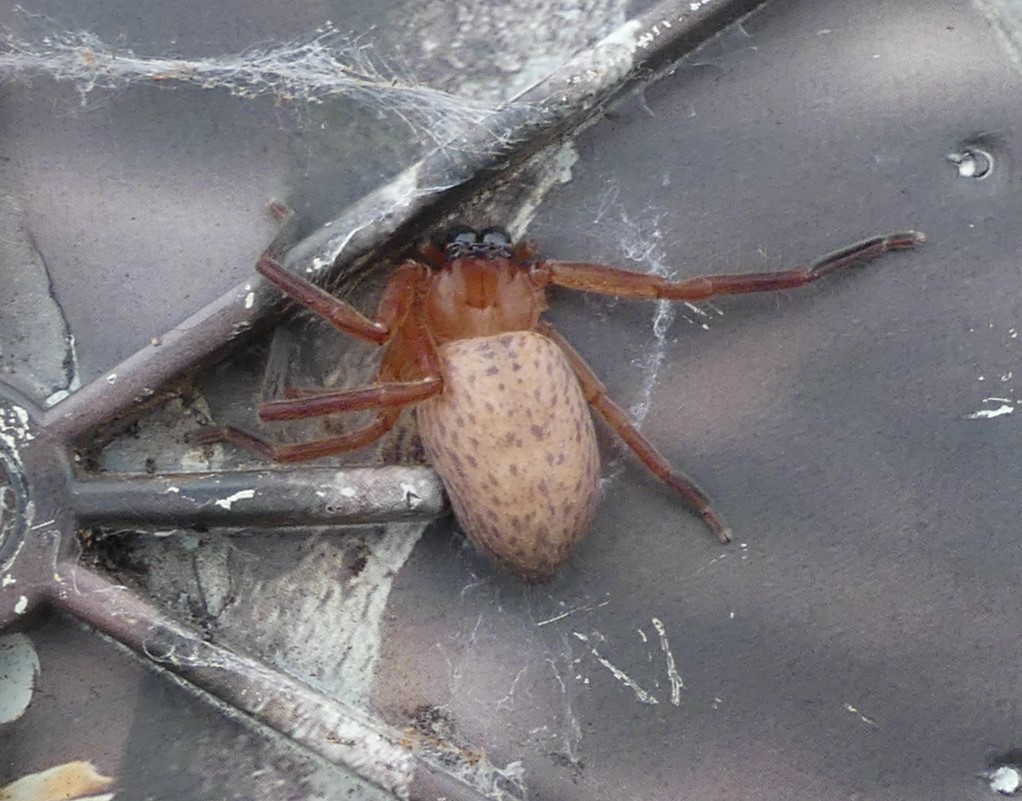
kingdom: Animalia
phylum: Arthropoda
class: Arachnida
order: Araneae
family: Sparassidae
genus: Delena
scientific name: Delena spenceri
